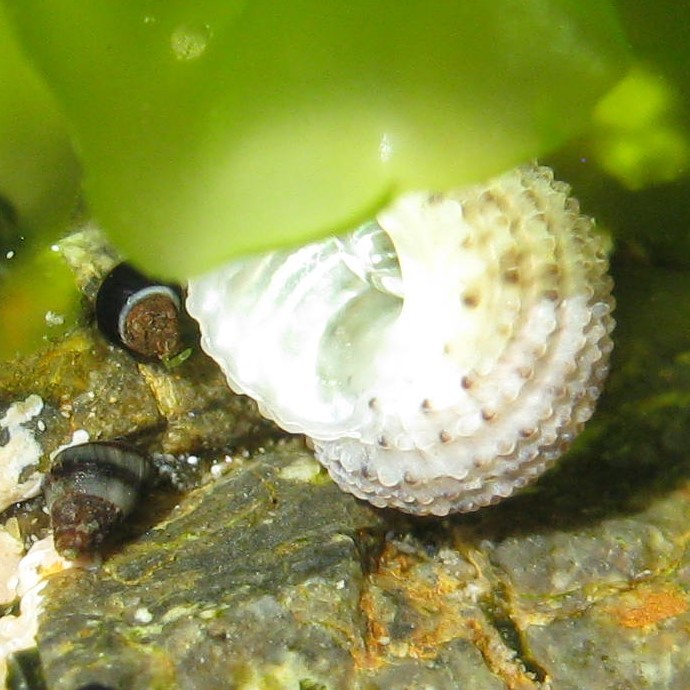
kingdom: Animalia
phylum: Mollusca
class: Gastropoda
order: Seguenziida
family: Chilodontaidae
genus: Herpetopoma
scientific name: Herpetopoma bellum
